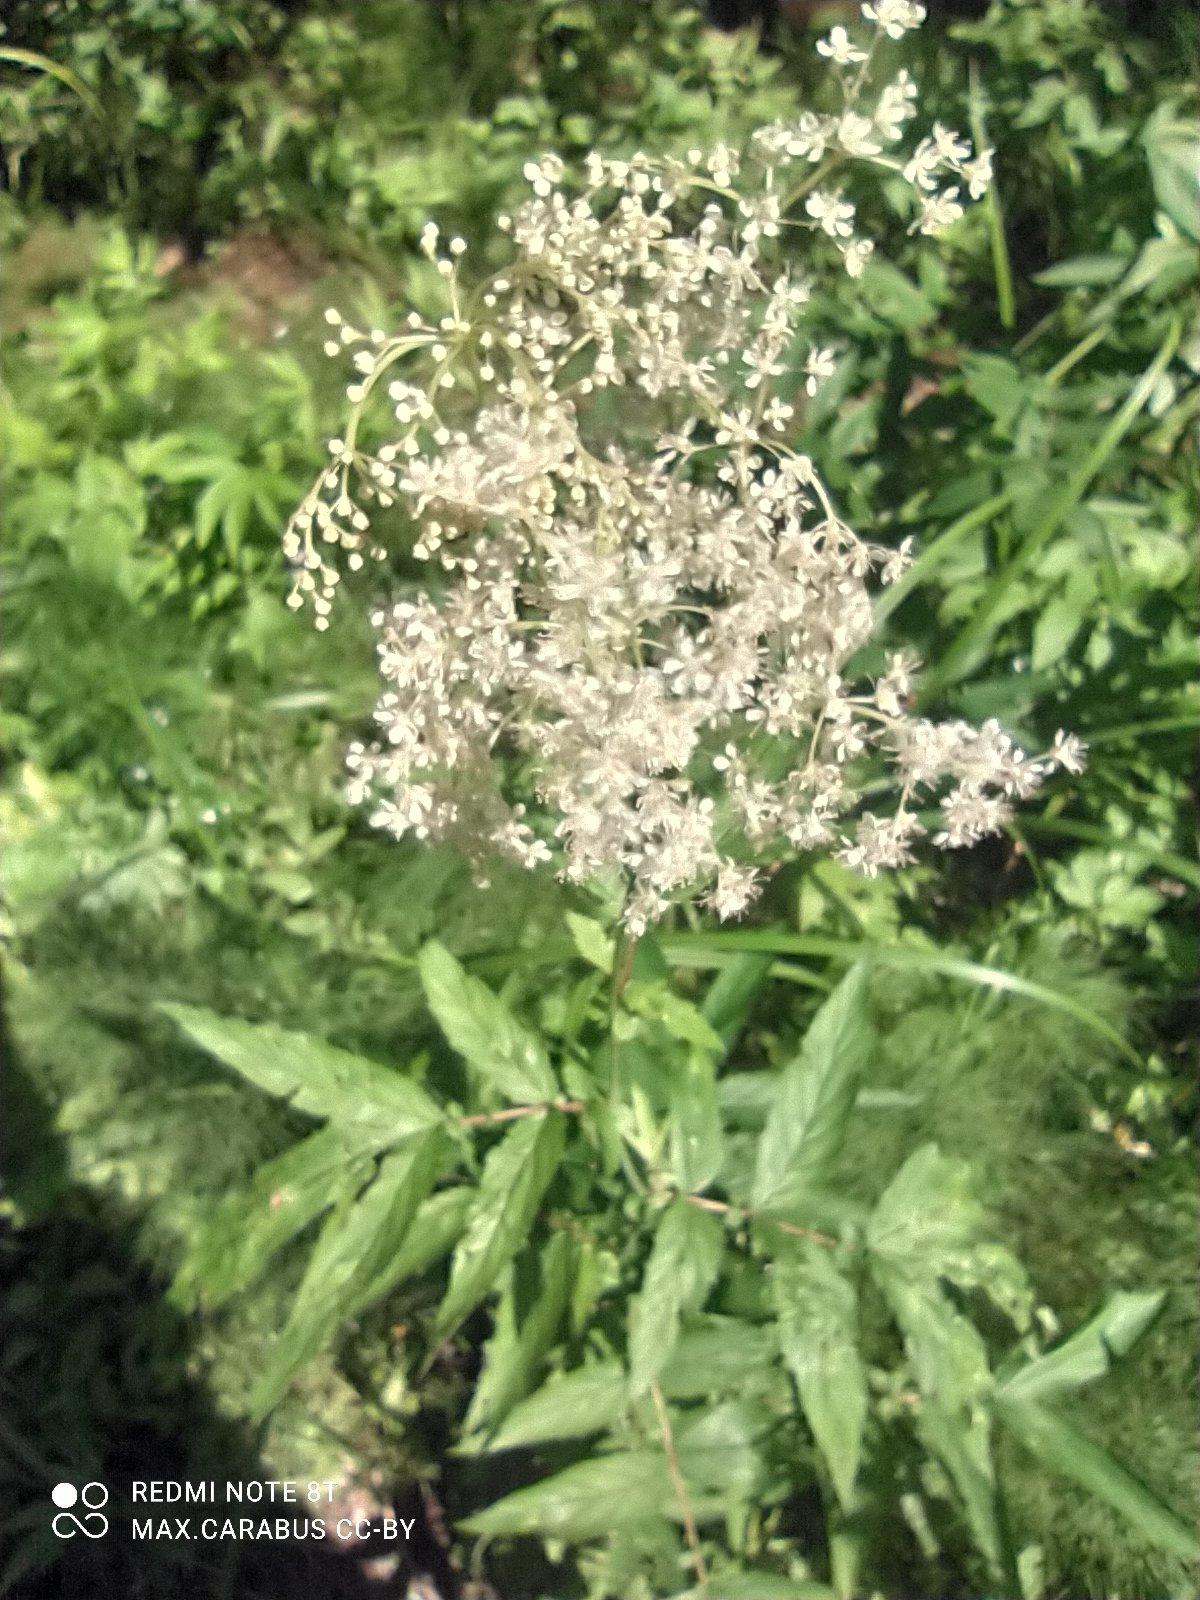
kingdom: Plantae
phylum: Tracheophyta
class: Magnoliopsida
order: Rosales
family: Rosaceae
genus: Filipendula
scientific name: Filipendula ulmaria
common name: Meadowsweet
